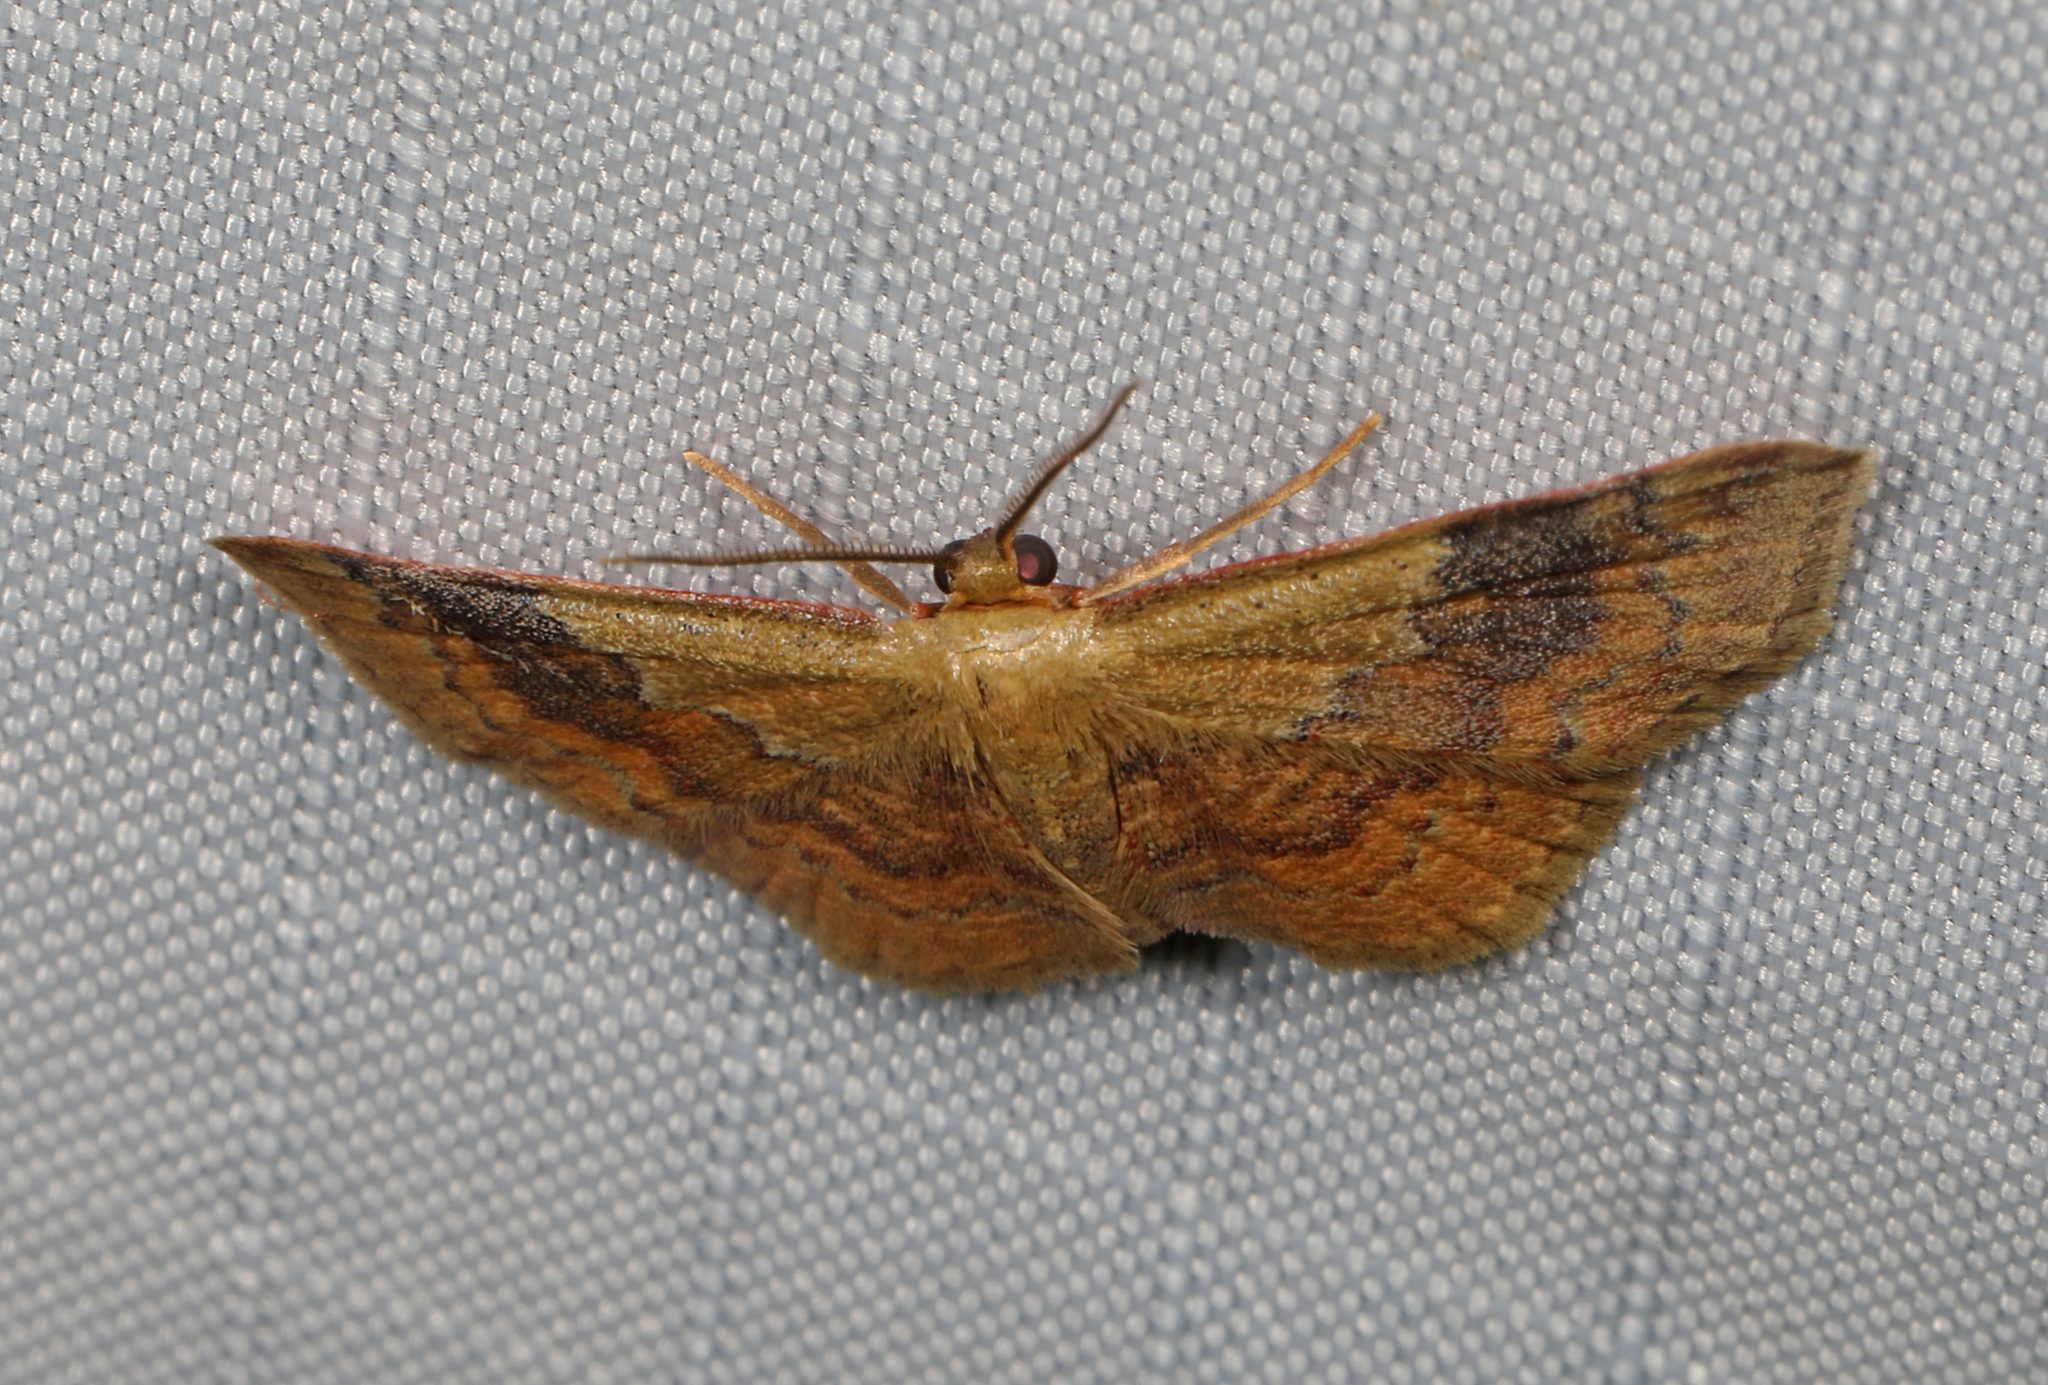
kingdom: Animalia
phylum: Arthropoda
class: Insecta
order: Lepidoptera
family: Geometridae
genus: Leptostales
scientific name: Leptostales ferruminaria
